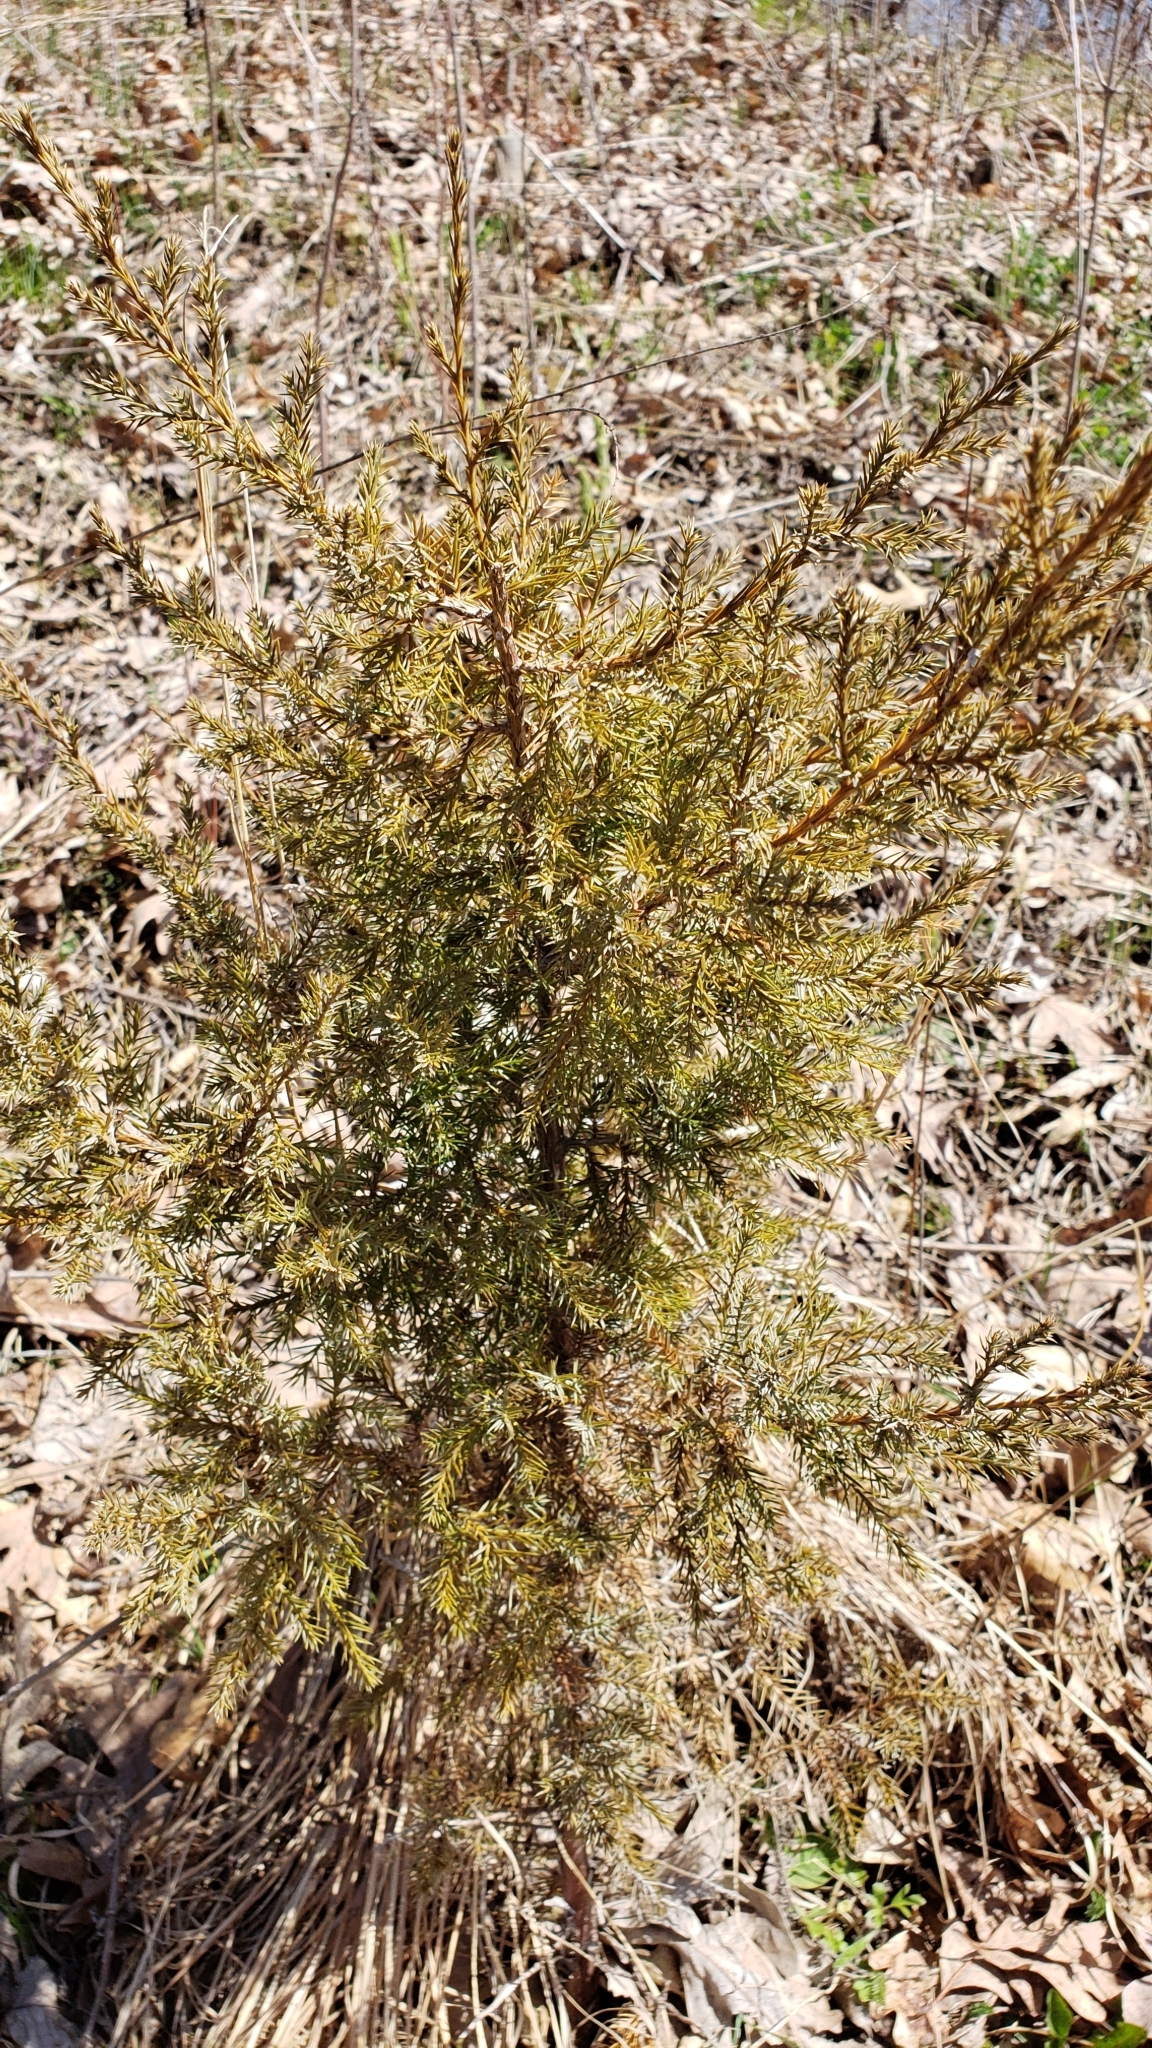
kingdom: Plantae
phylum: Tracheophyta
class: Pinopsida
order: Pinales
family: Cupressaceae
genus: Juniperus
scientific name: Juniperus virginiana
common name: Red juniper
